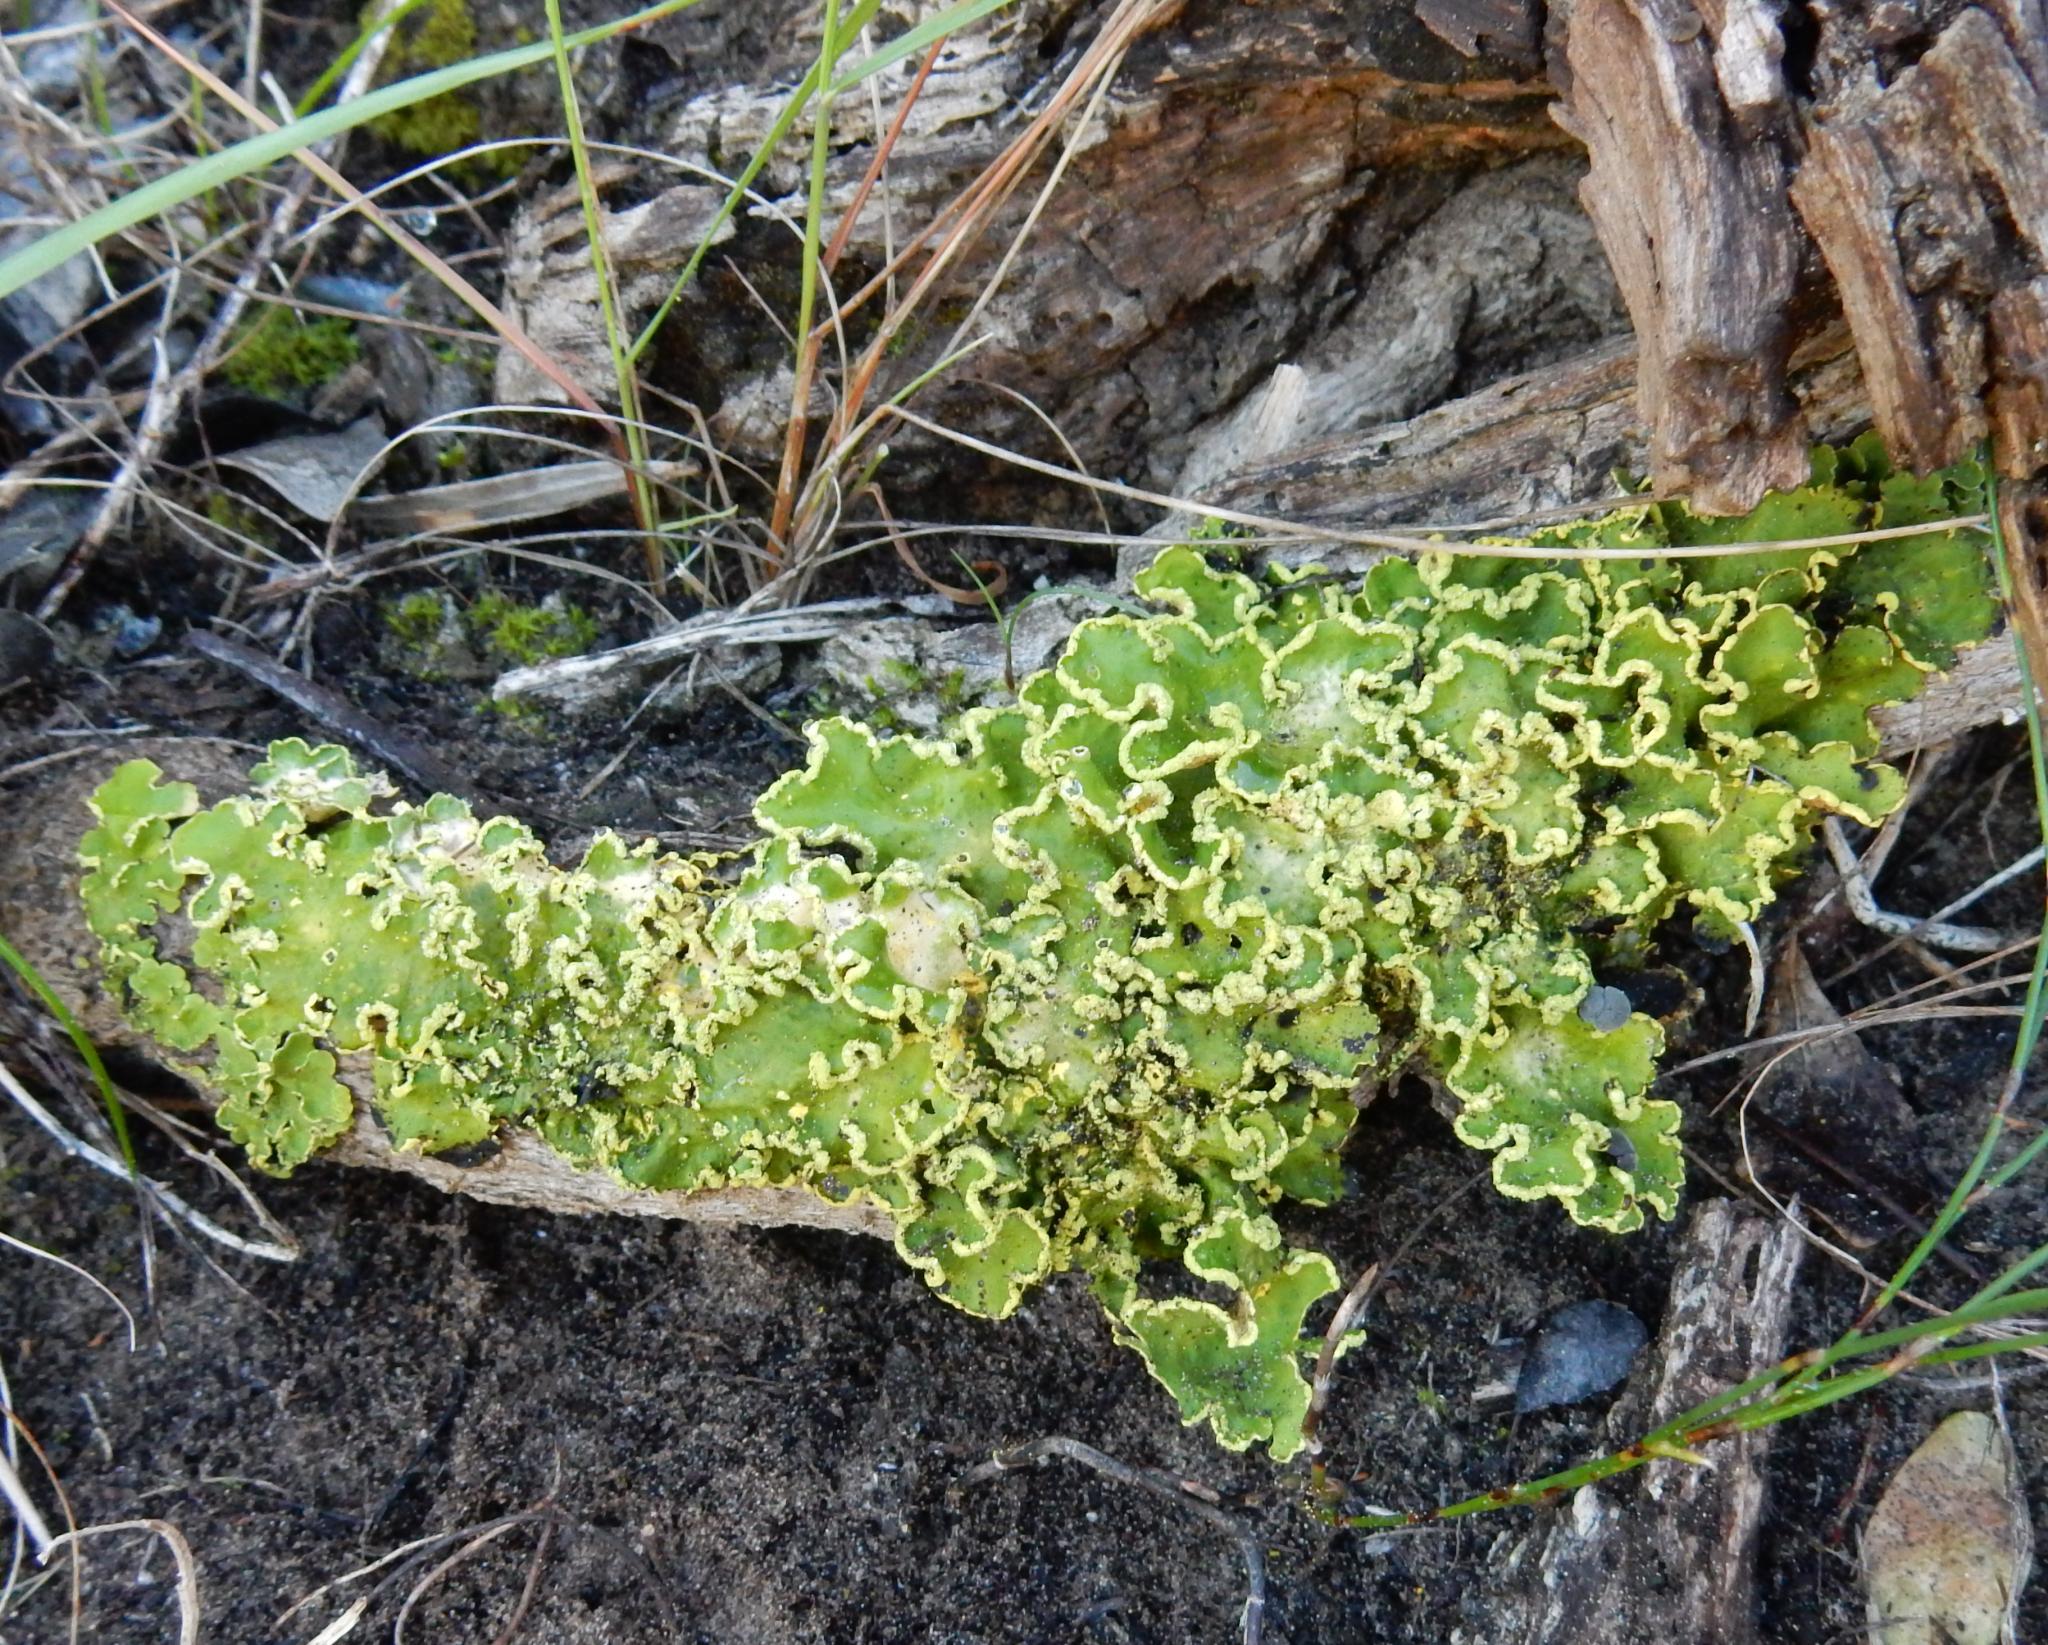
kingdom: Fungi
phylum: Ascomycota
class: Lecanoromycetes
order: Peltigerales
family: Lobariaceae
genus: Pseudocyphellaria
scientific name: Pseudocyphellaria aurata
